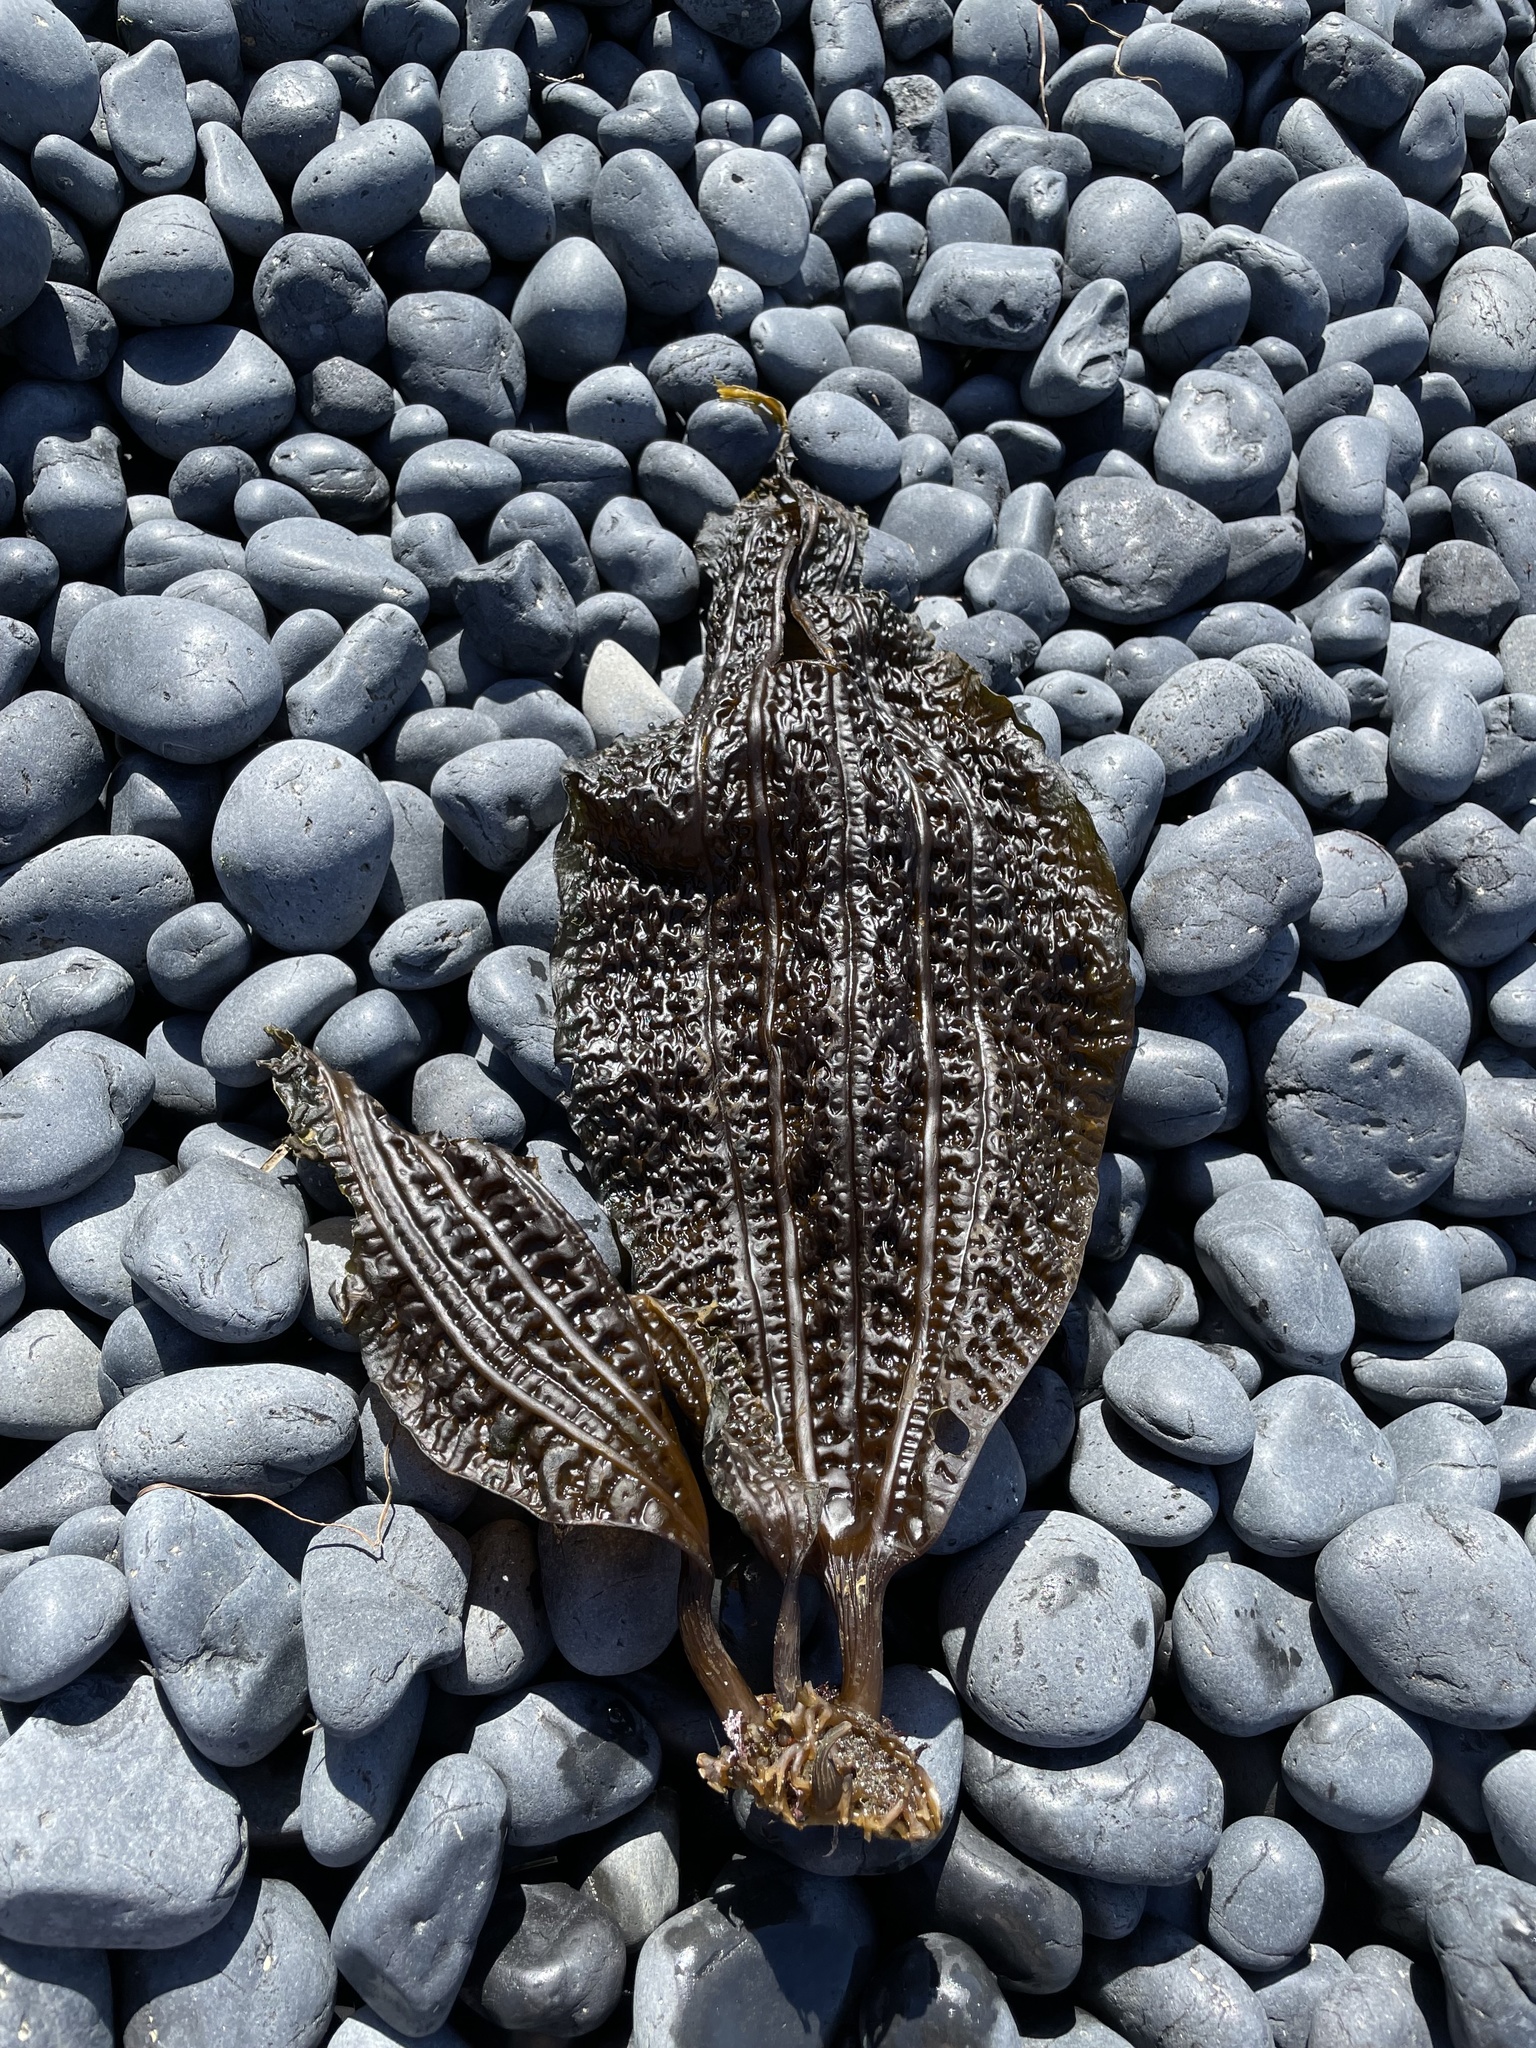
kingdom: Chromista
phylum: Ochrophyta
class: Phaeophyceae
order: Laminariales
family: Costariaceae
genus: Costaria
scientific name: Costaria costata
